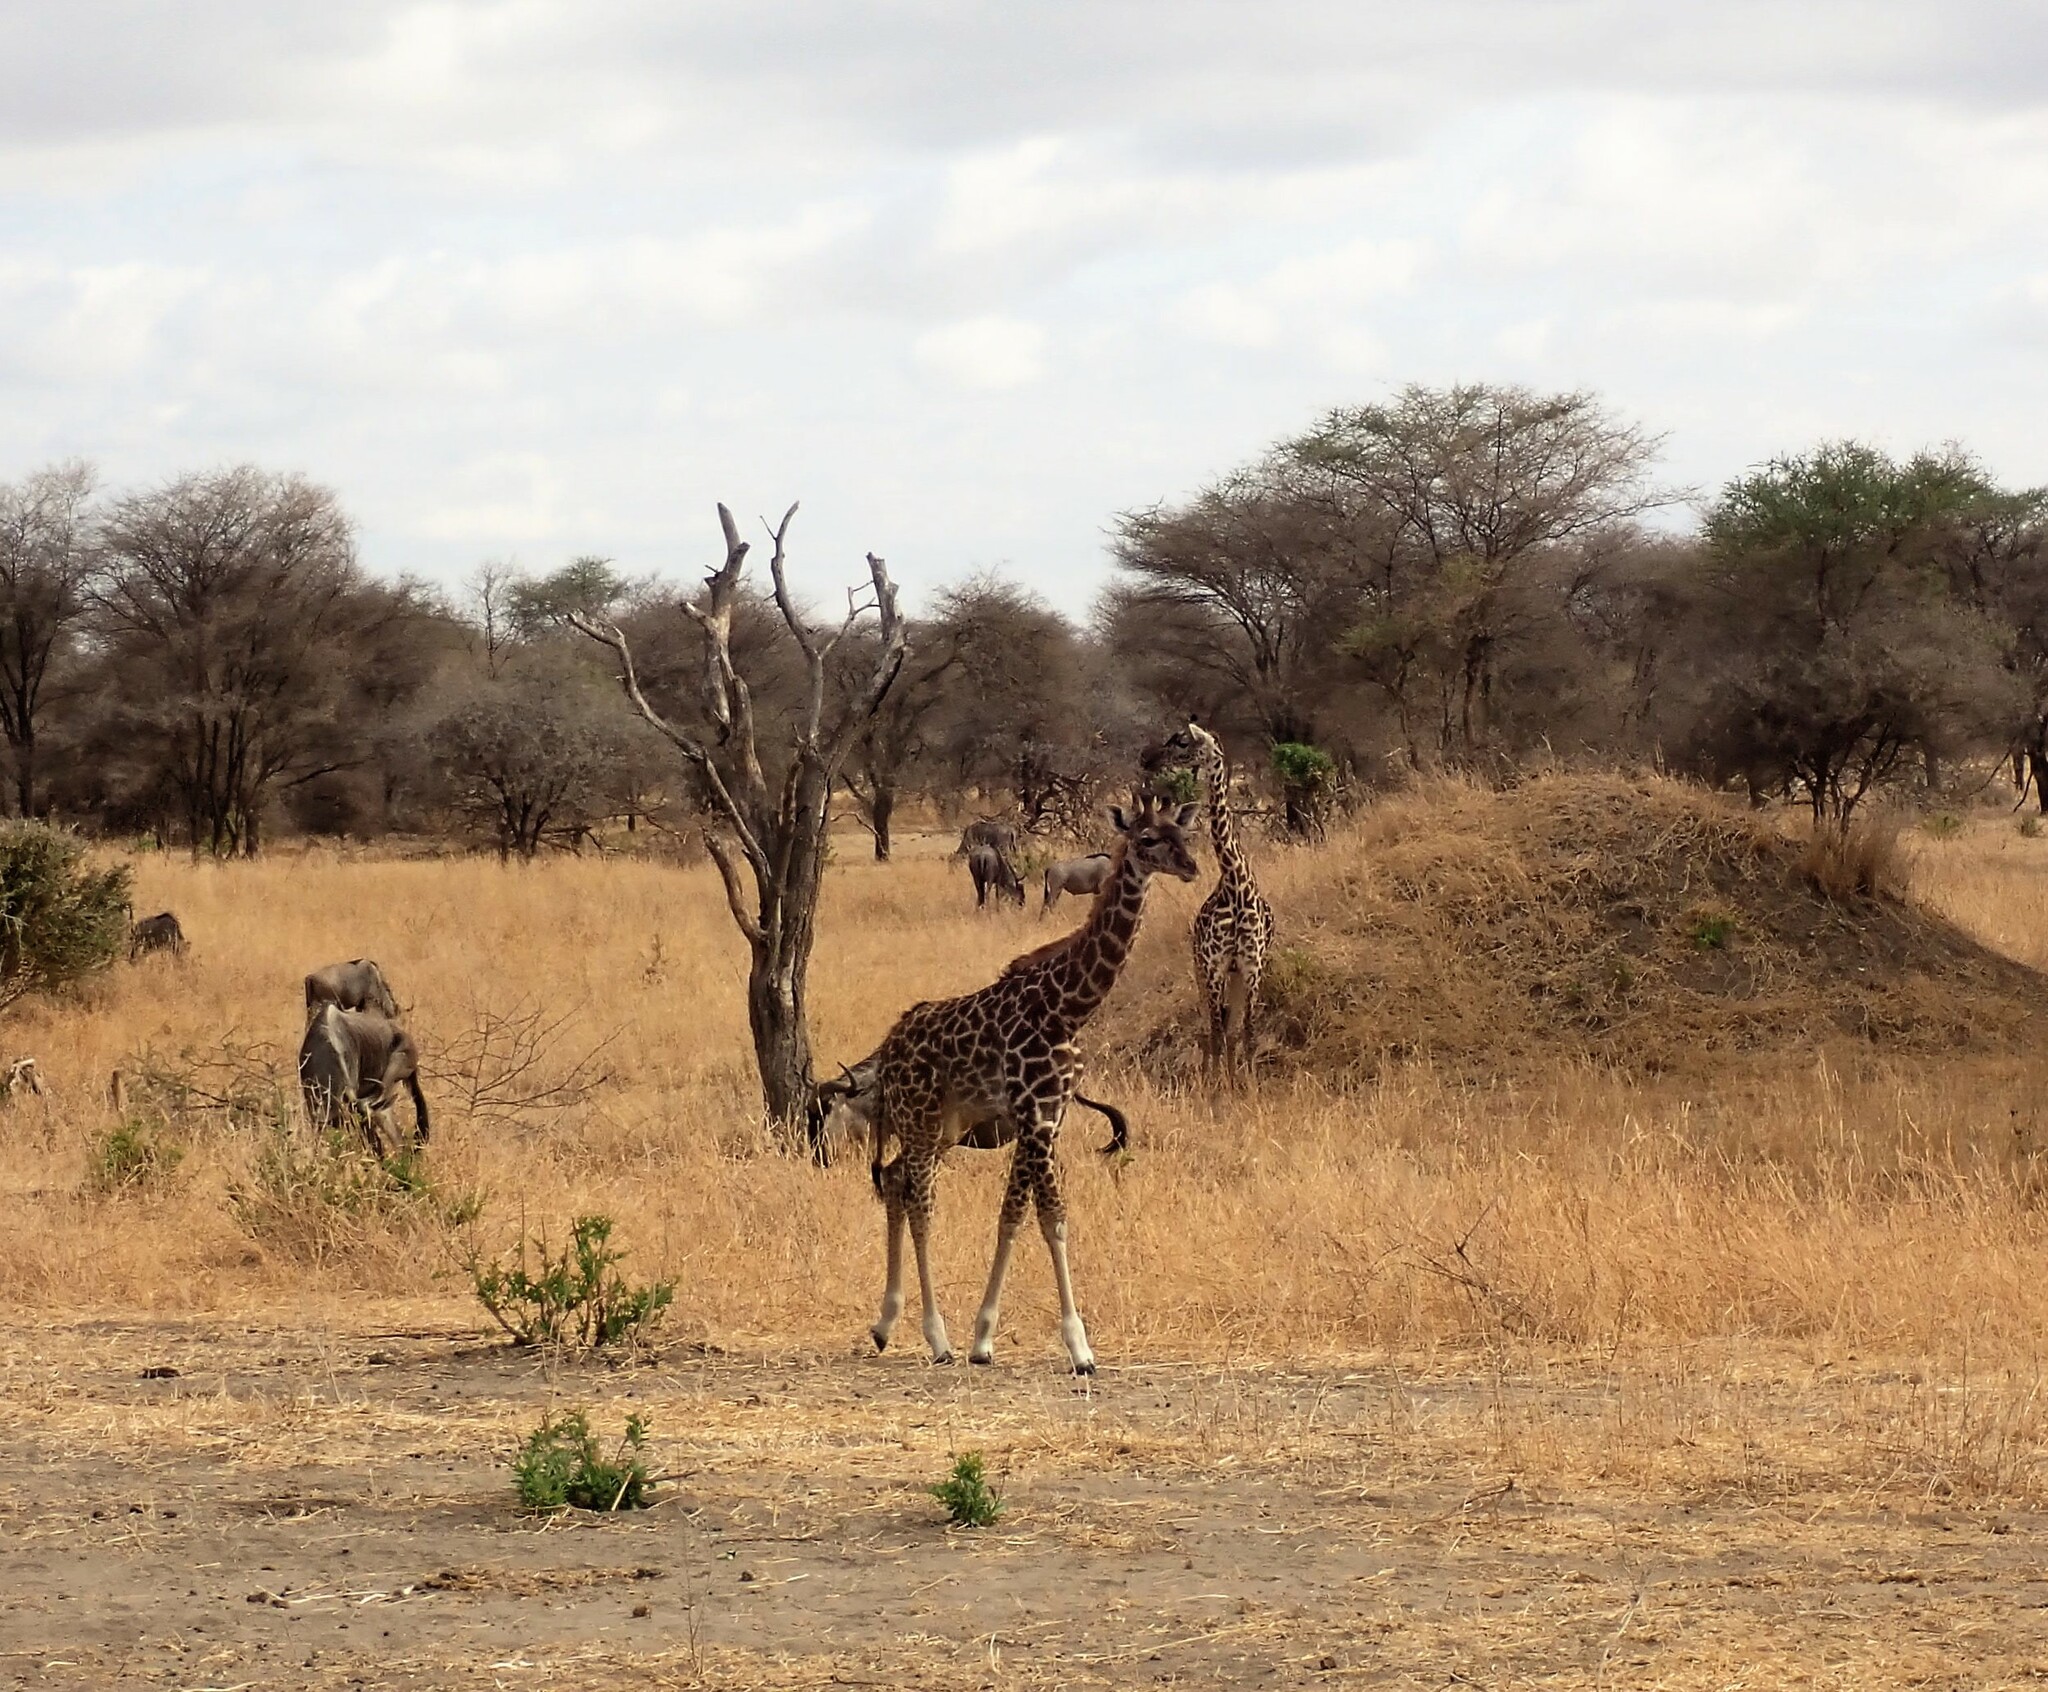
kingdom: Animalia
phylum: Chordata
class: Mammalia
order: Artiodactyla
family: Giraffidae
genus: Giraffa
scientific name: Giraffa tippelskirchi
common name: Masai giraffe
